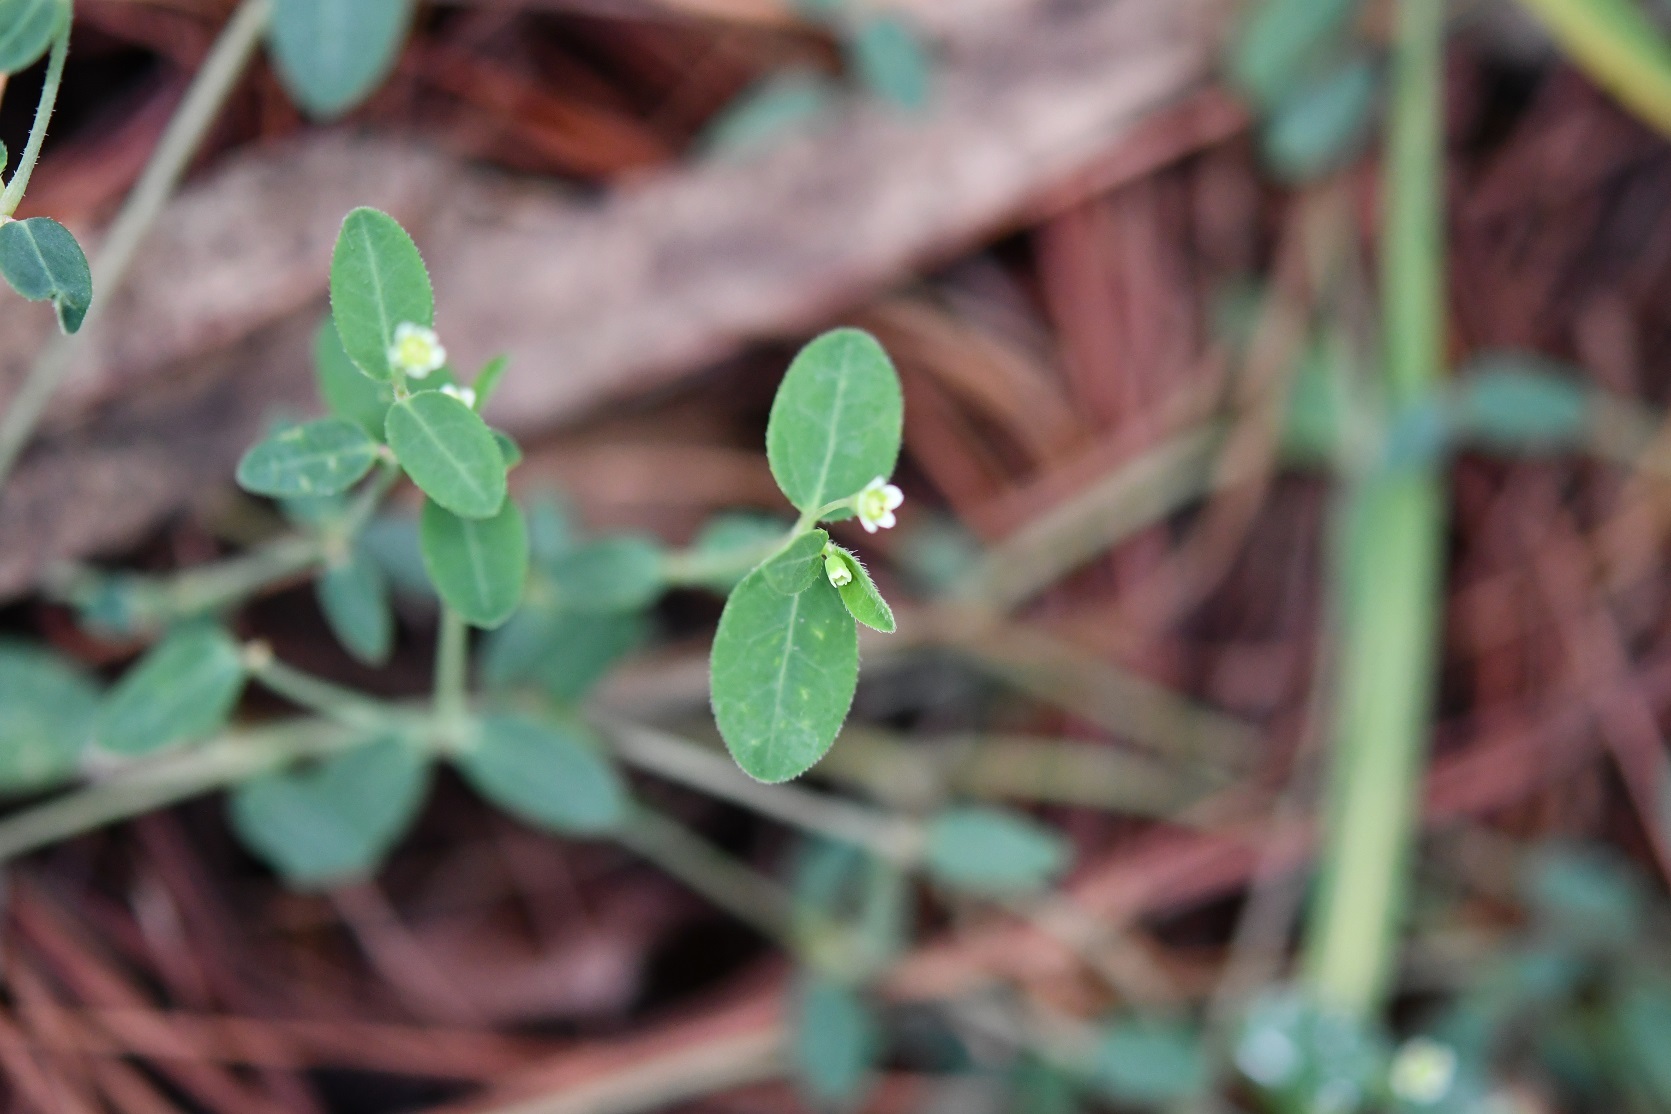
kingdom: Plantae
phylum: Tracheophyta
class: Magnoliopsida
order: Malpighiales
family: Euphorbiaceae
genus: Euphorbia
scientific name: Euphorbia macropus
